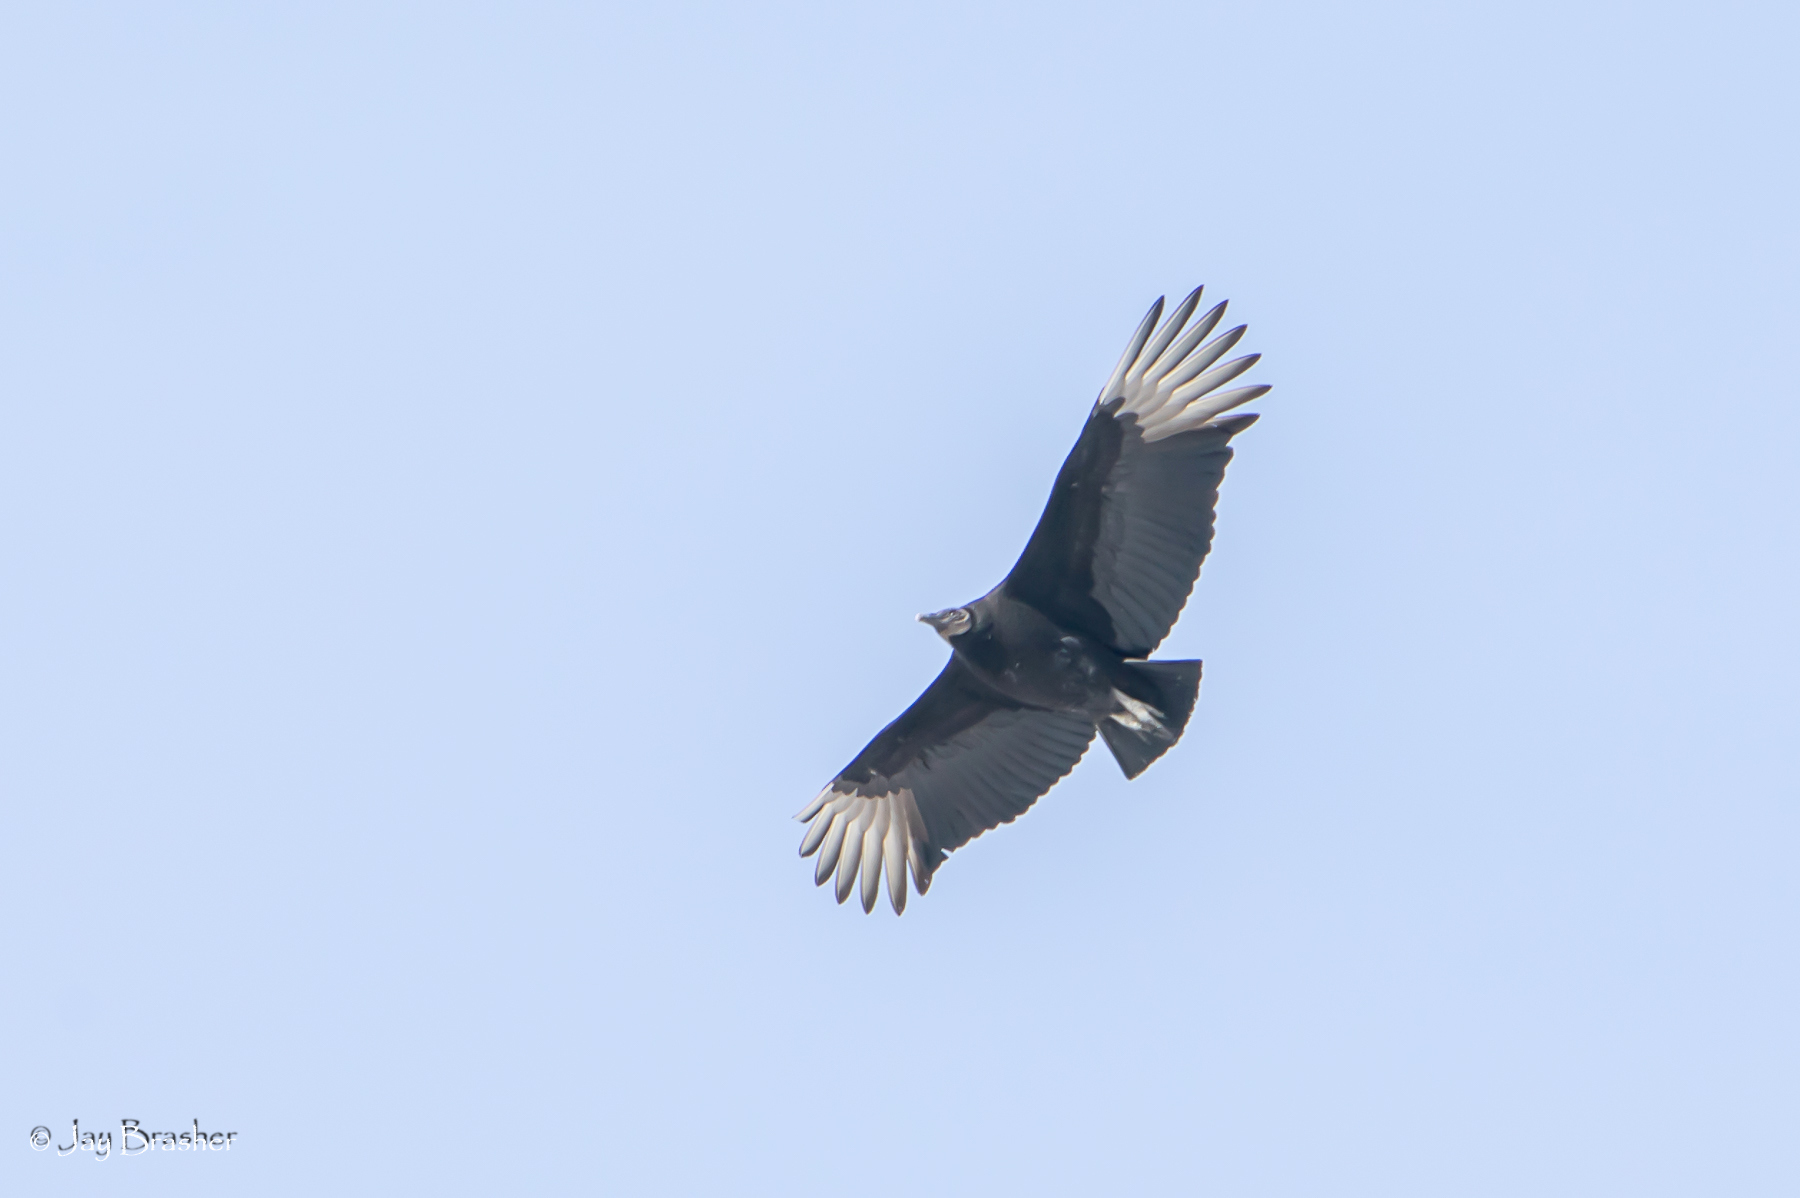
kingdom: Animalia
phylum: Chordata
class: Aves
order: Accipitriformes
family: Cathartidae
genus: Coragyps
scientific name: Coragyps atratus
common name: Black vulture
